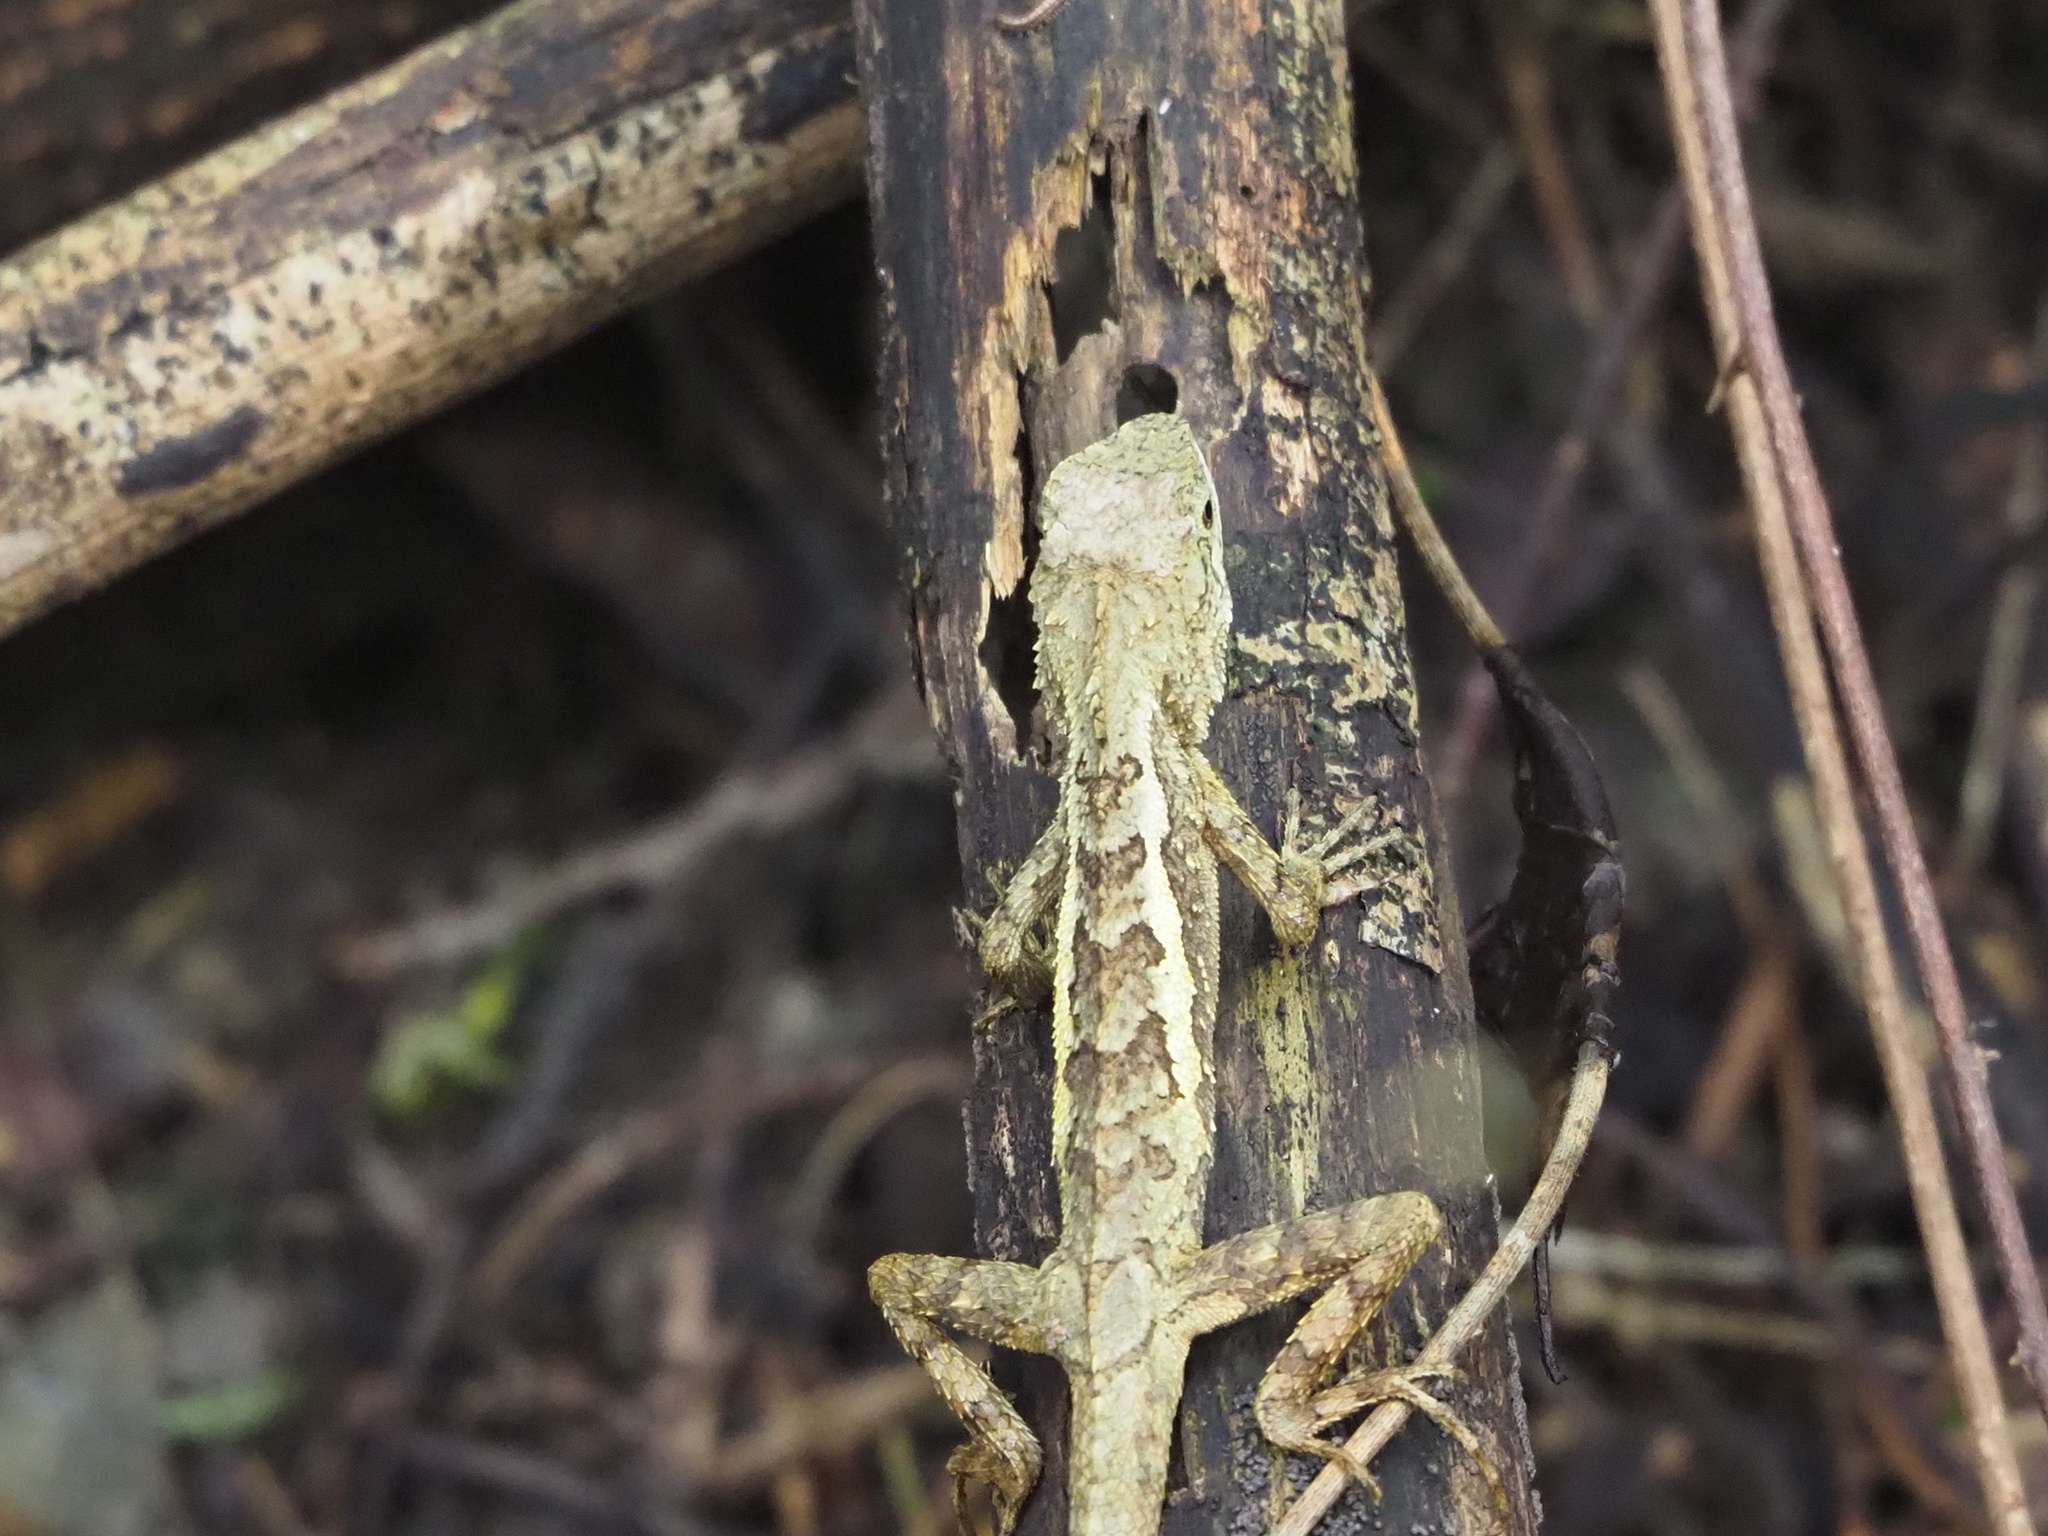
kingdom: Animalia
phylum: Chordata
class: Squamata
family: Agamidae
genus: Diploderma
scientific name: Diploderma swinhonis
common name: Taiwan japalure
